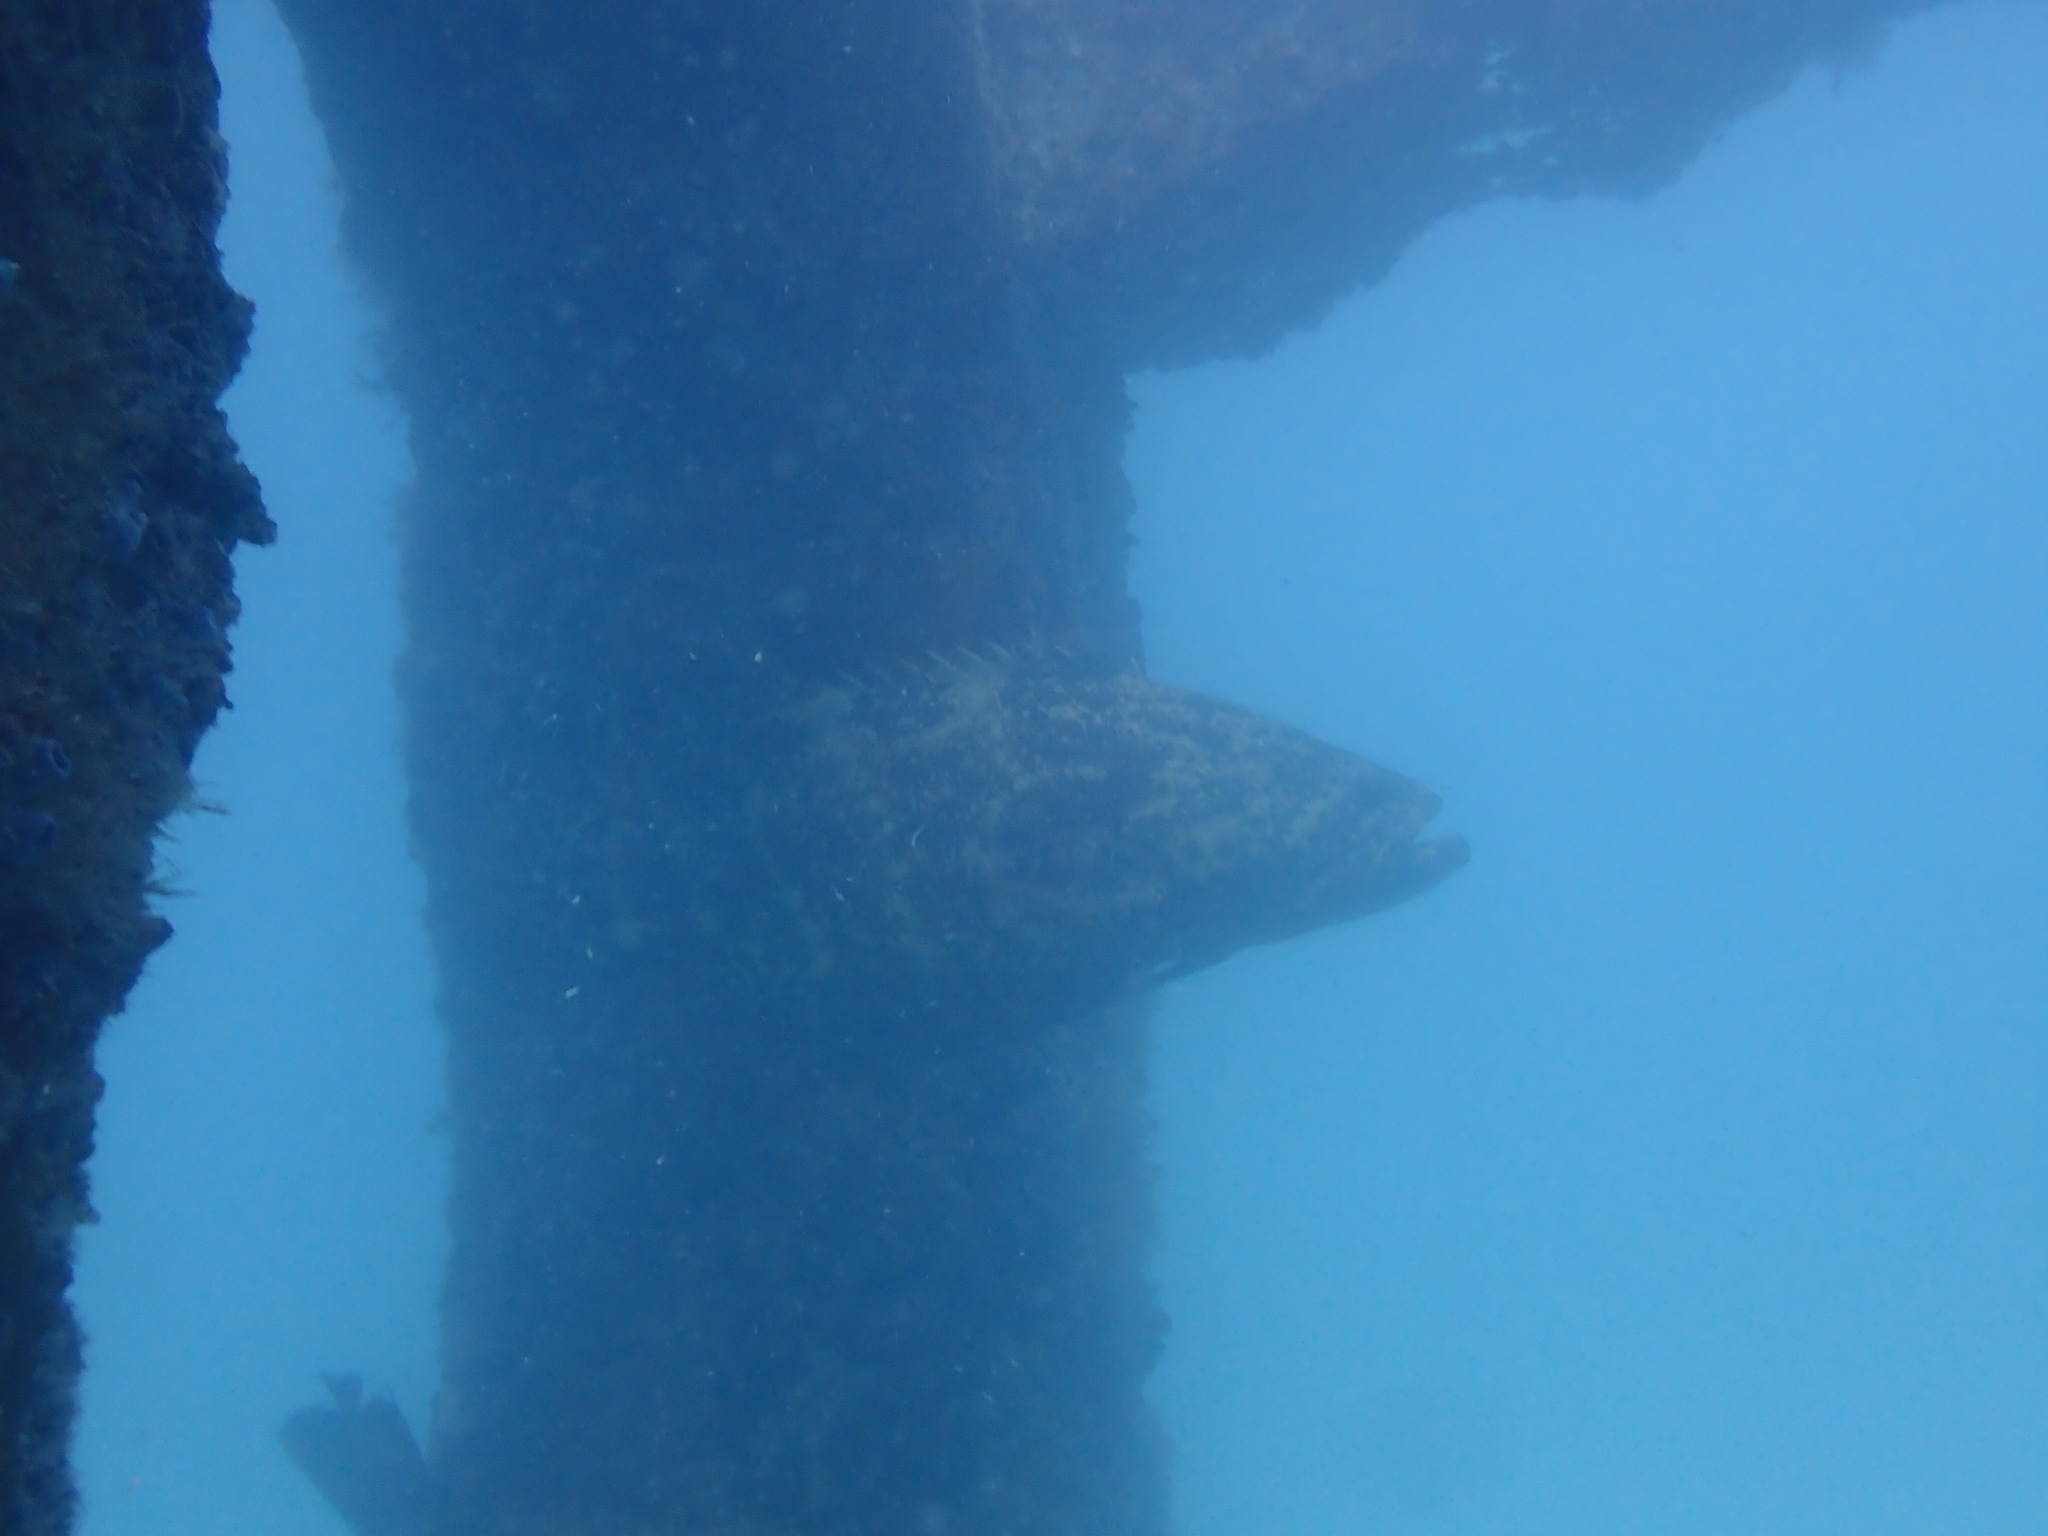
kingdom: Animalia
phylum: Chordata
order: Perciformes
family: Serranidae
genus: Epinephelus
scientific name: Epinephelus itajara
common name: Jewfish
